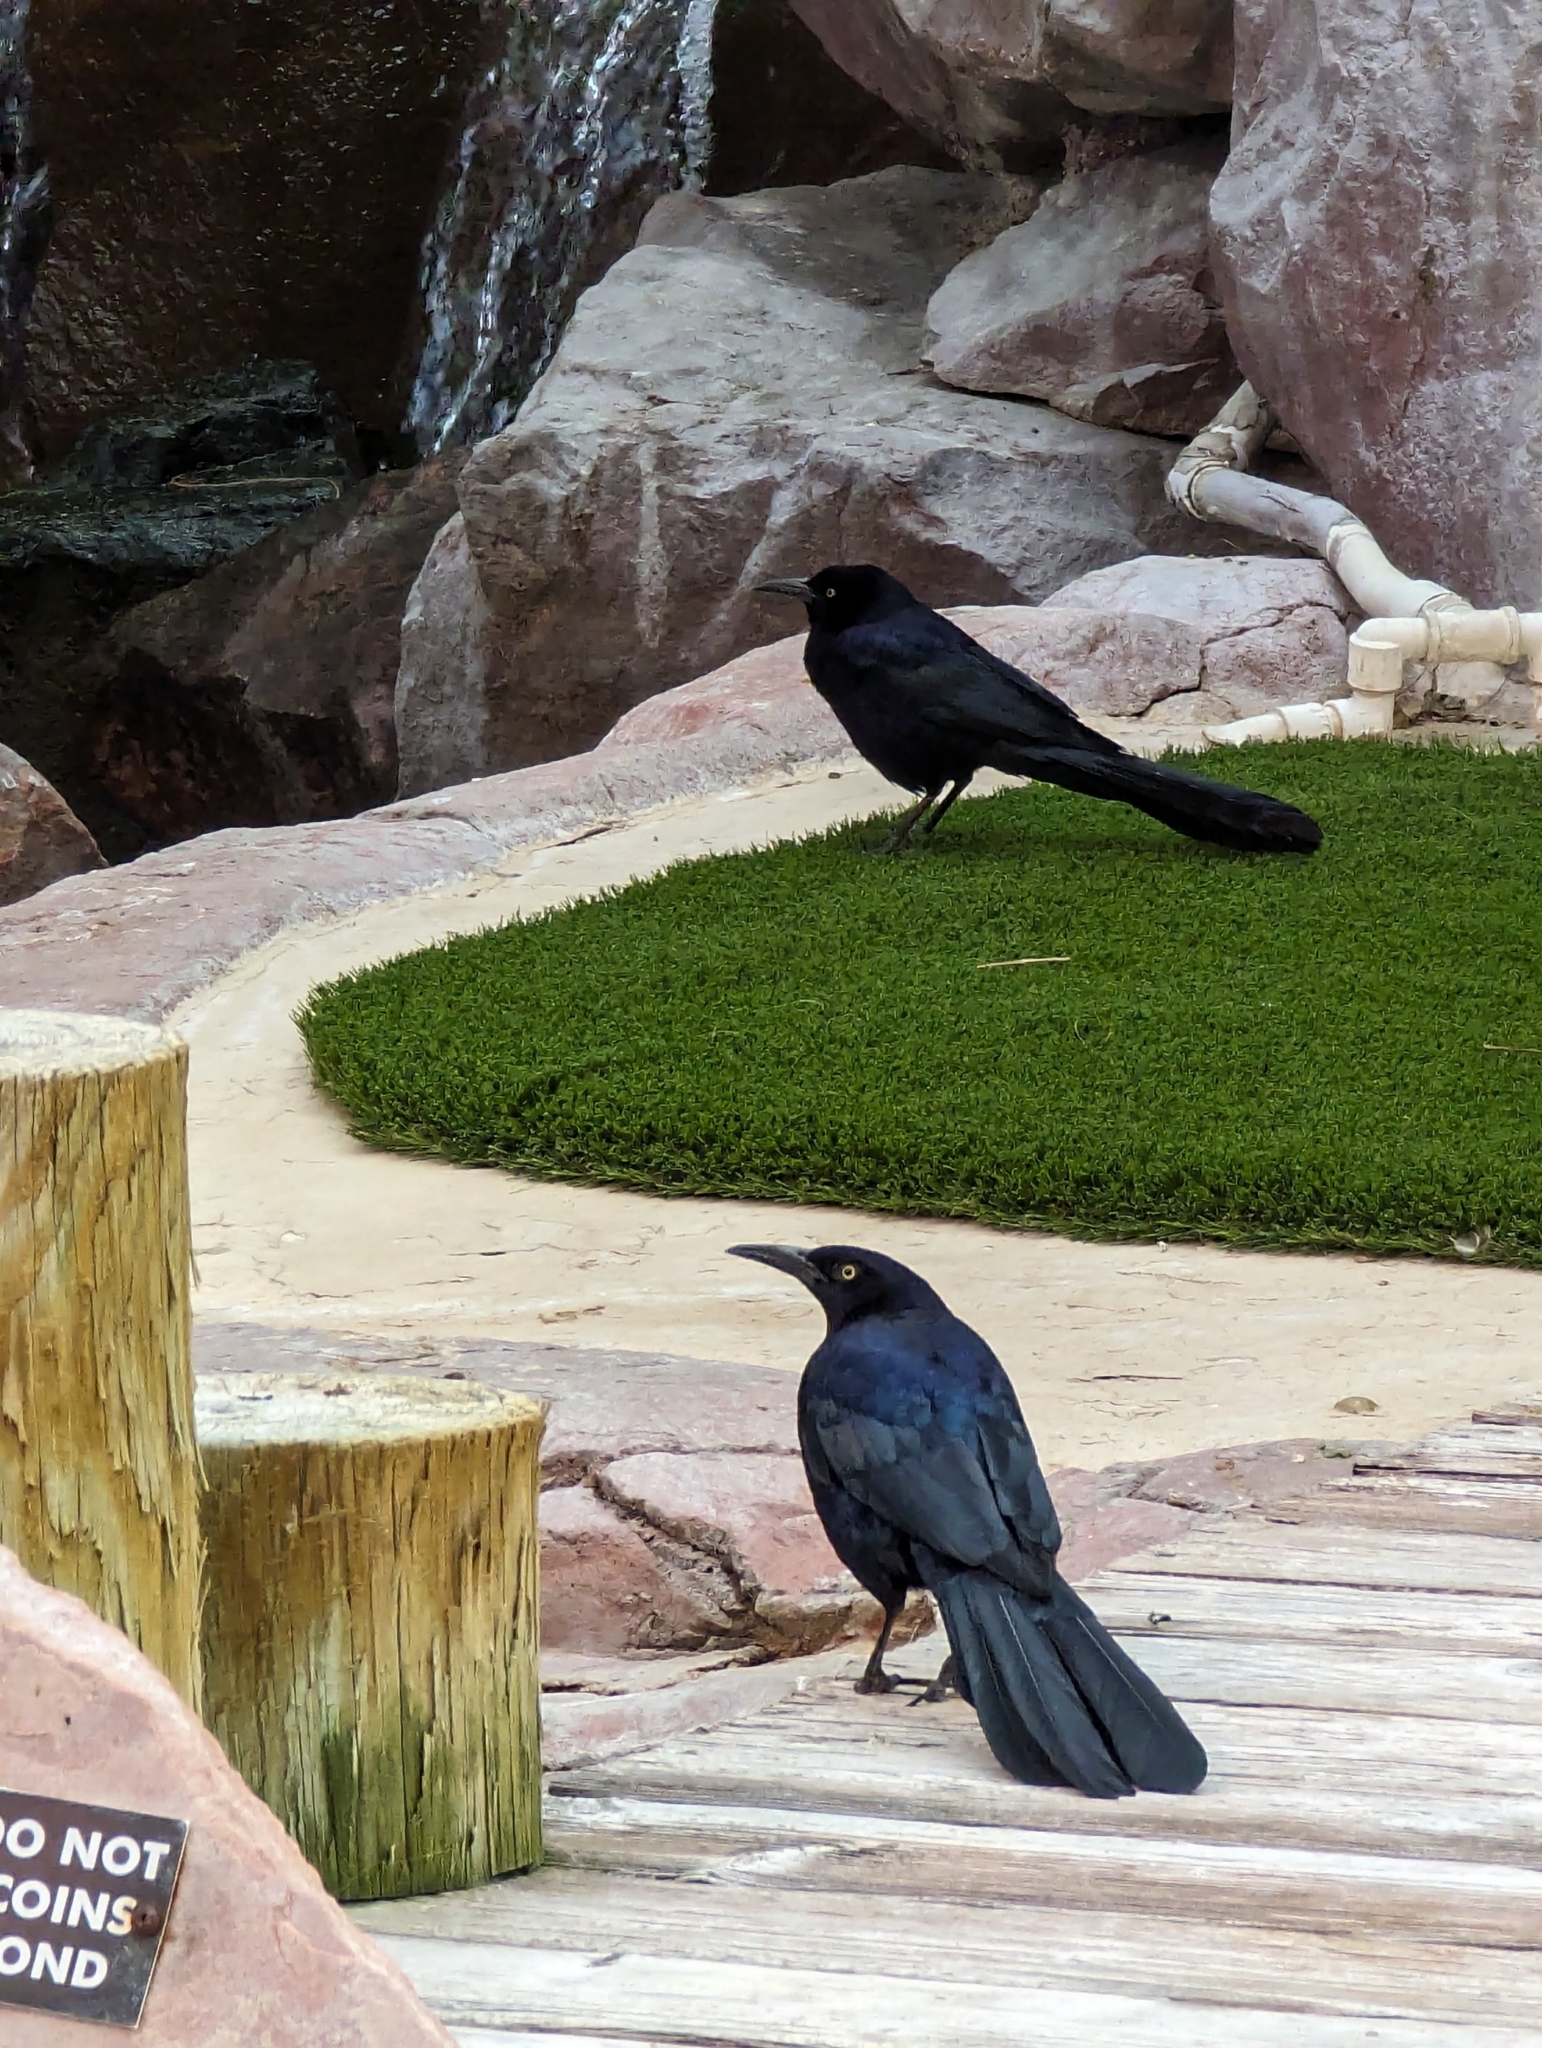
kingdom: Animalia
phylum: Chordata
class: Aves
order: Passeriformes
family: Icteridae
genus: Quiscalus
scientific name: Quiscalus mexicanus
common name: Great-tailed grackle
